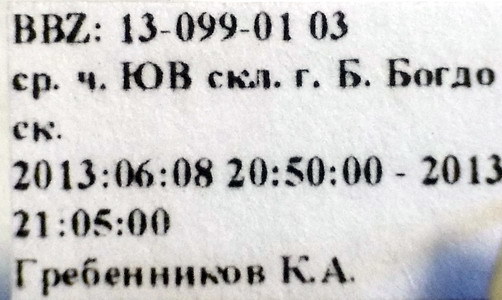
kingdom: Animalia
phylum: Arthropoda
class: Insecta
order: Hemiptera
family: Rhopalidae
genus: Chorosoma
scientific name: Chorosoma gracile
